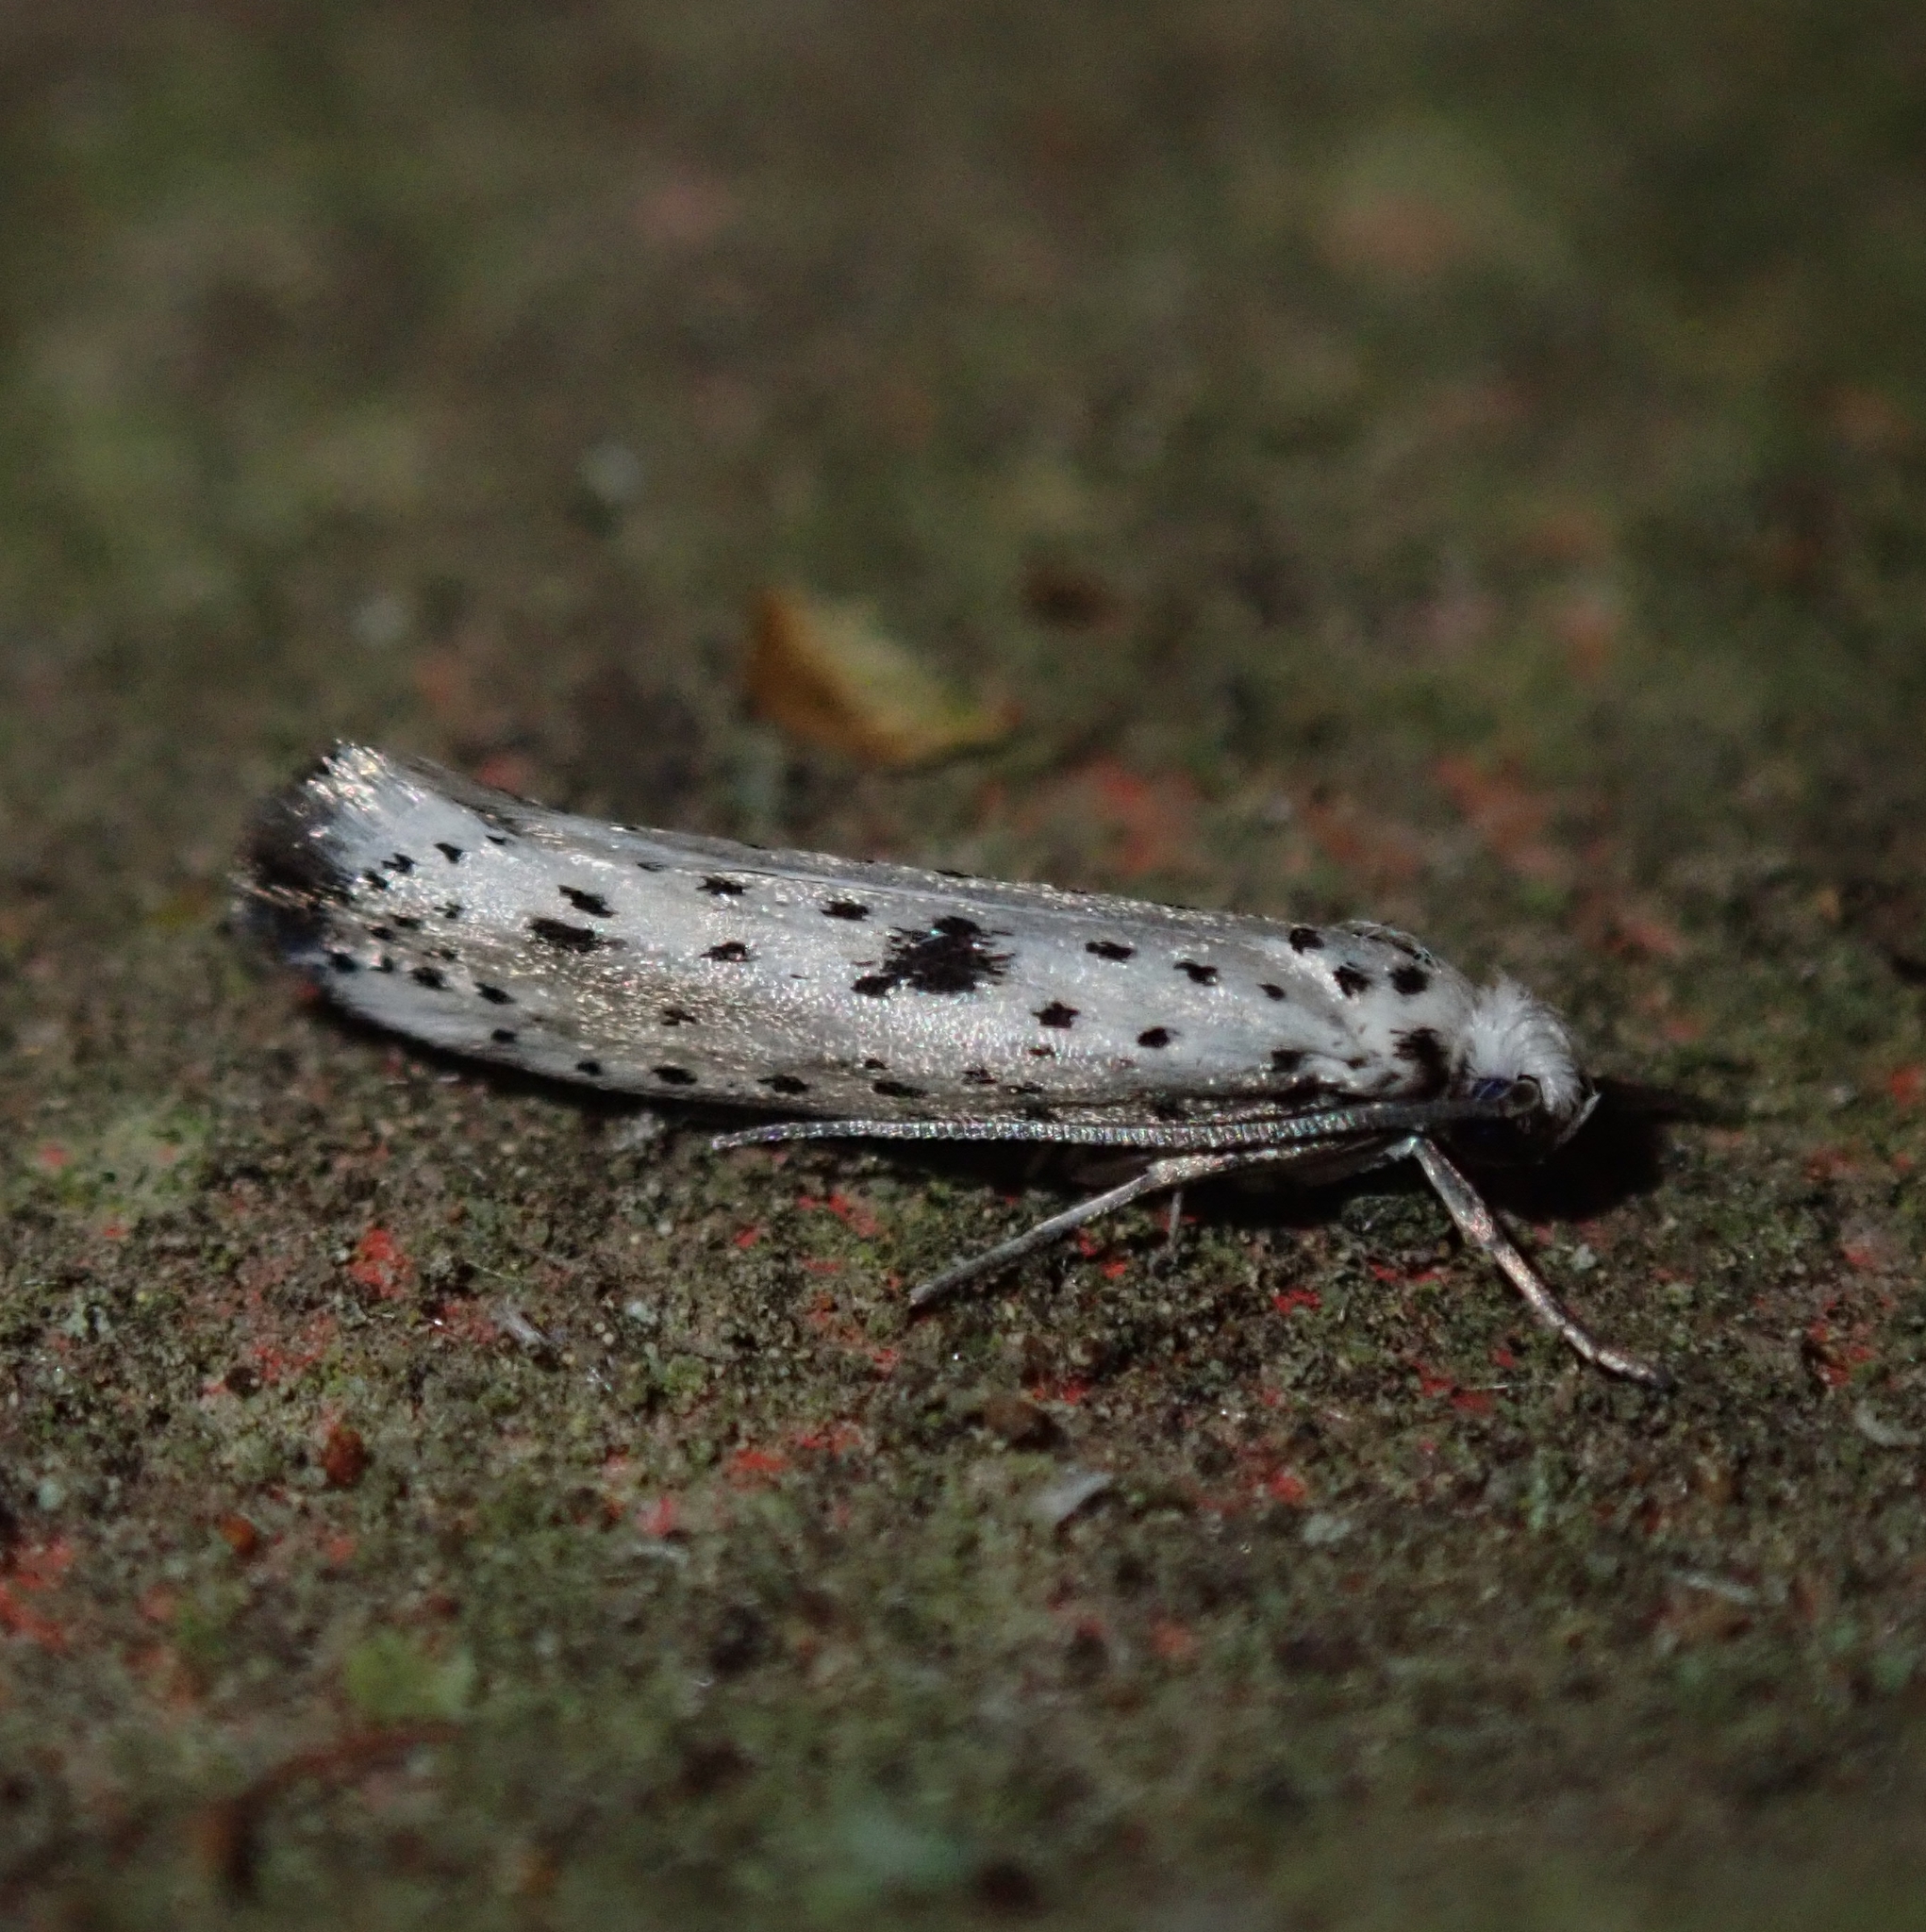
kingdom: Animalia
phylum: Arthropoda
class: Insecta
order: Lepidoptera
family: Yponomeutidae
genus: Yponomeuta
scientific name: Yponomeuta plumbella
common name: Black-tipped ermine
